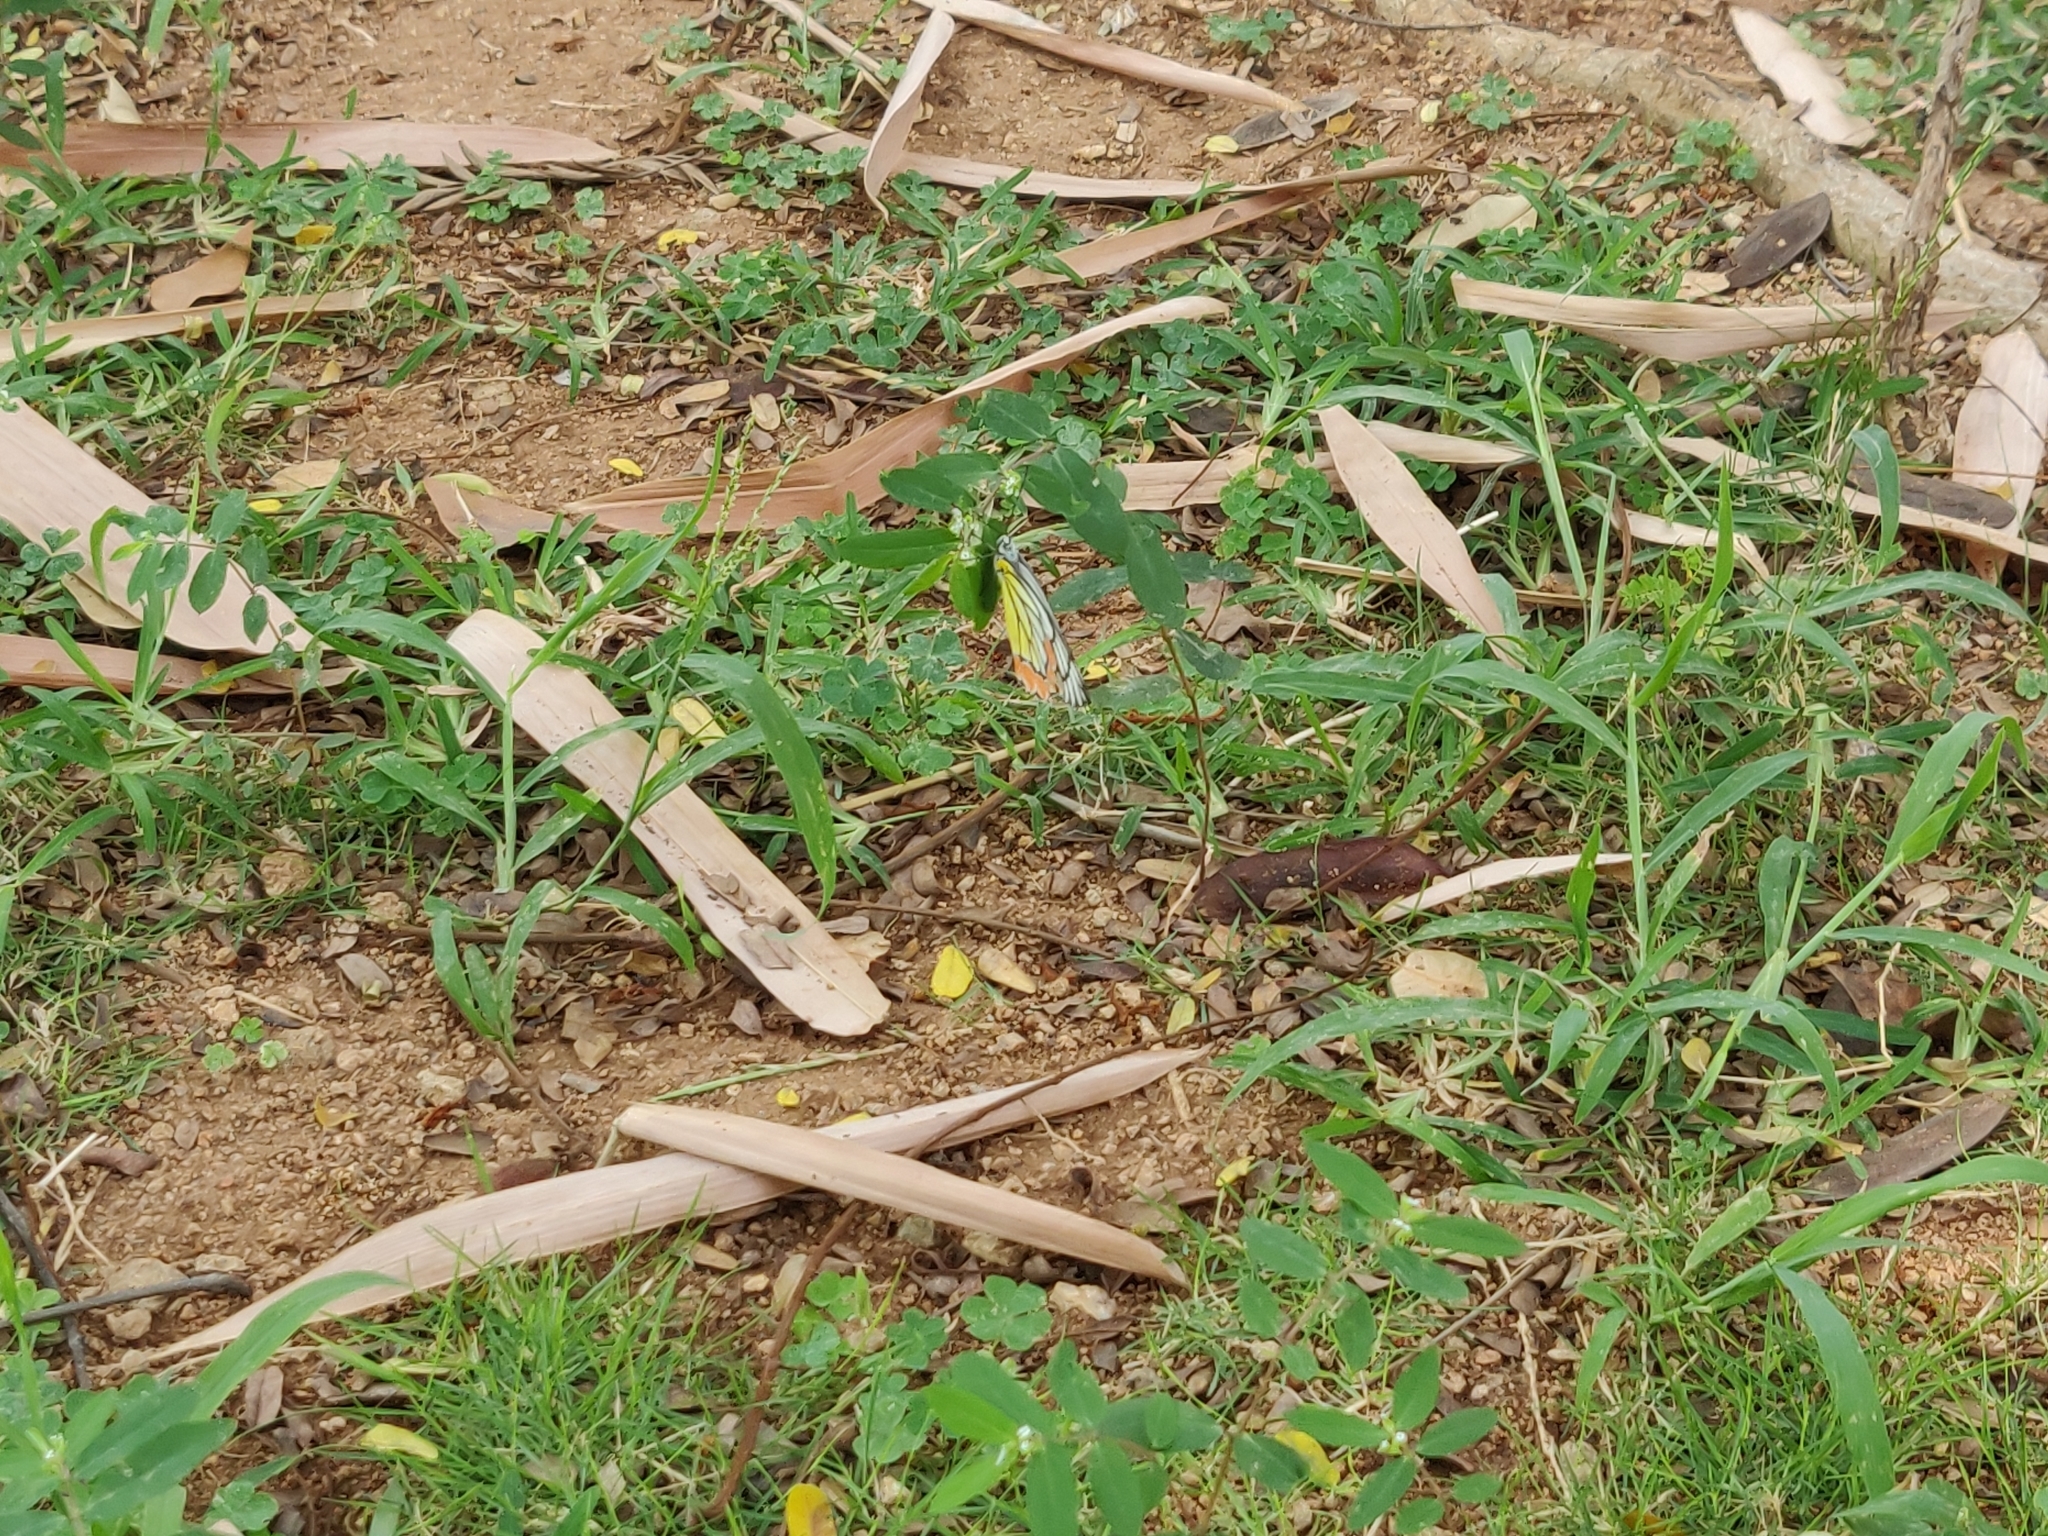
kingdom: Animalia
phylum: Arthropoda
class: Insecta
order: Lepidoptera
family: Pieridae
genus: Delias
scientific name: Delias eucharis
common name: Common jezebel
